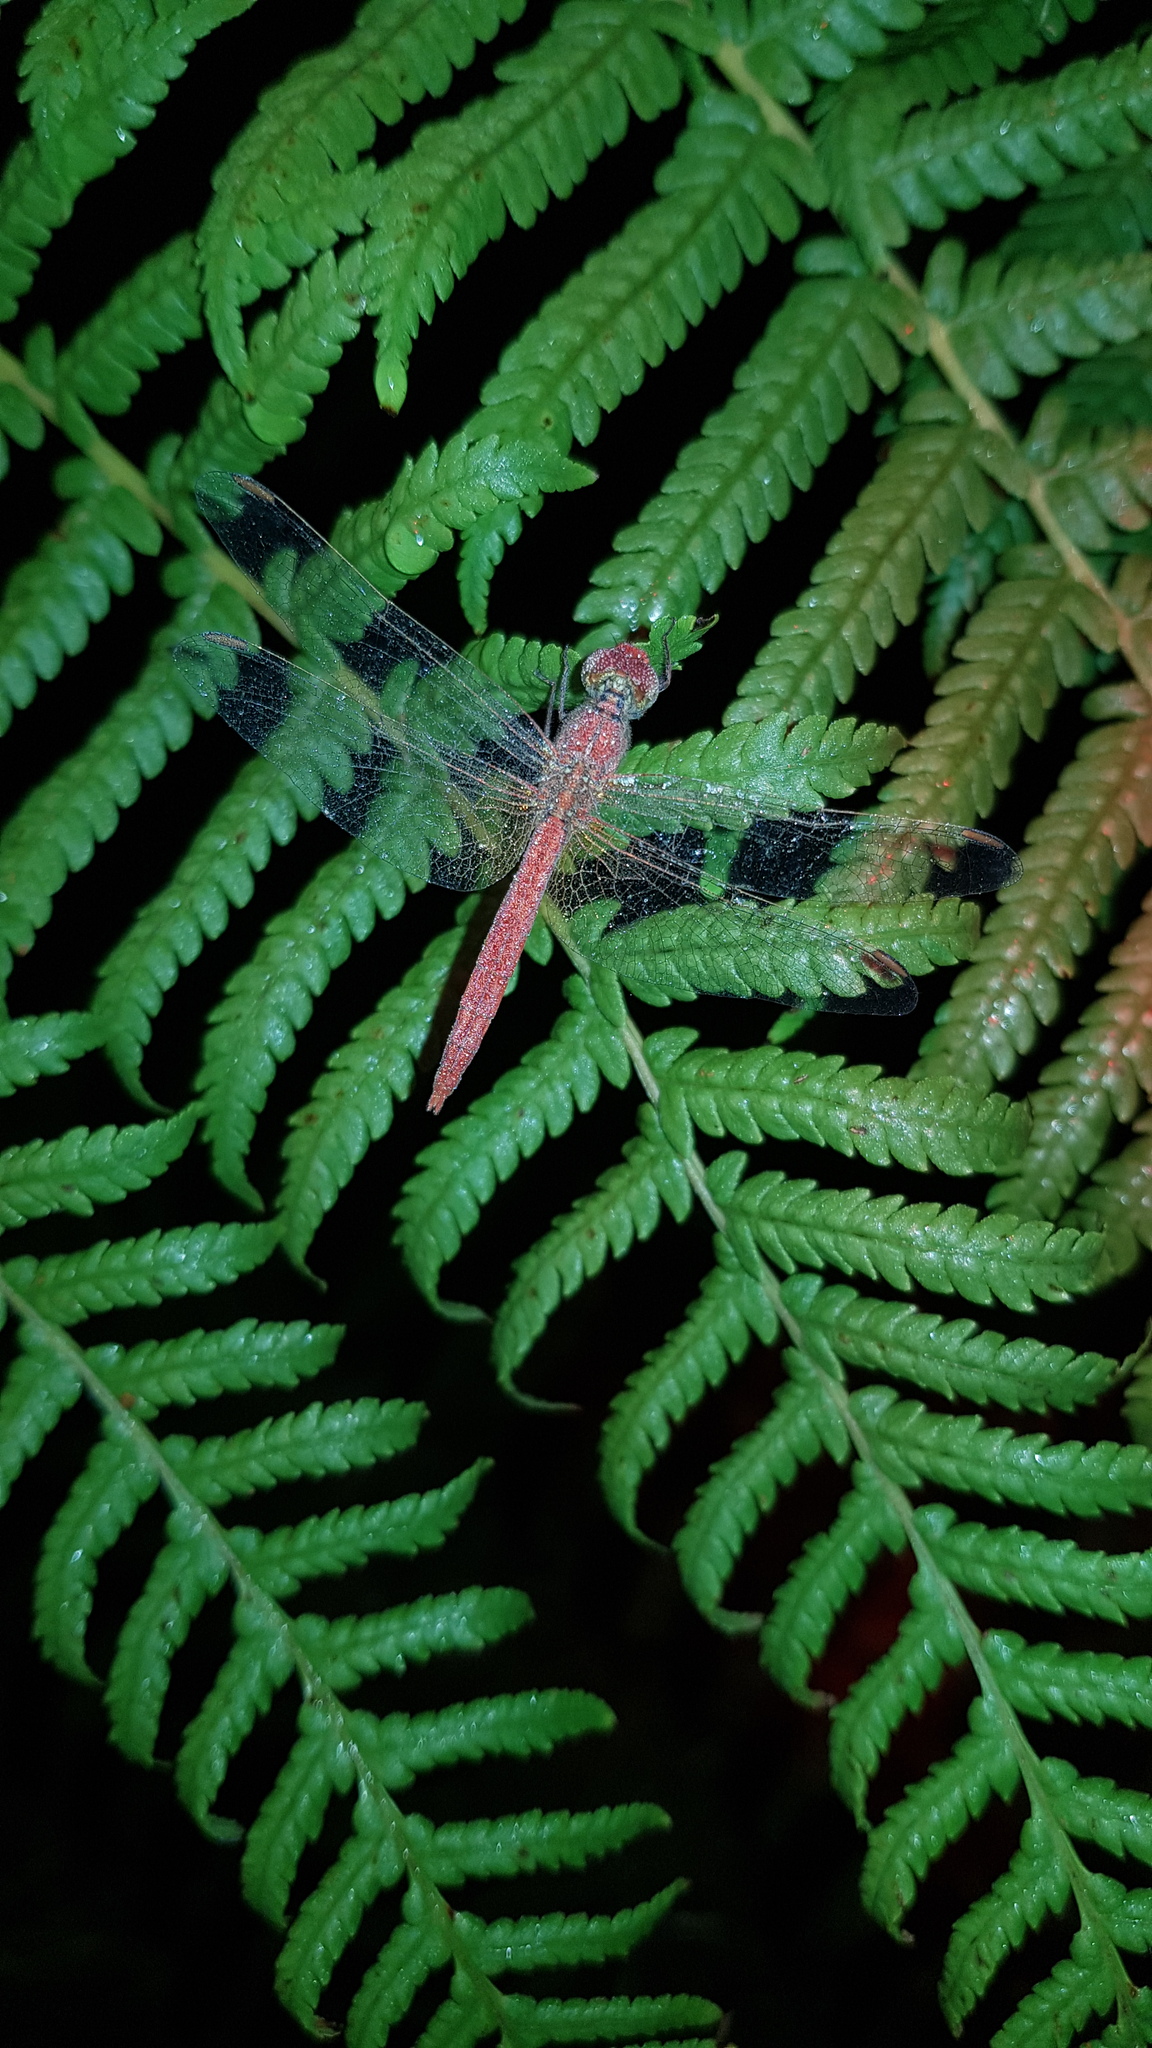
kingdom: Animalia
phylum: Arthropoda
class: Insecta
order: Odonata
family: Libellulidae
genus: Diplacodes
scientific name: Diplacodes haematodes
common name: Scarlet percher
